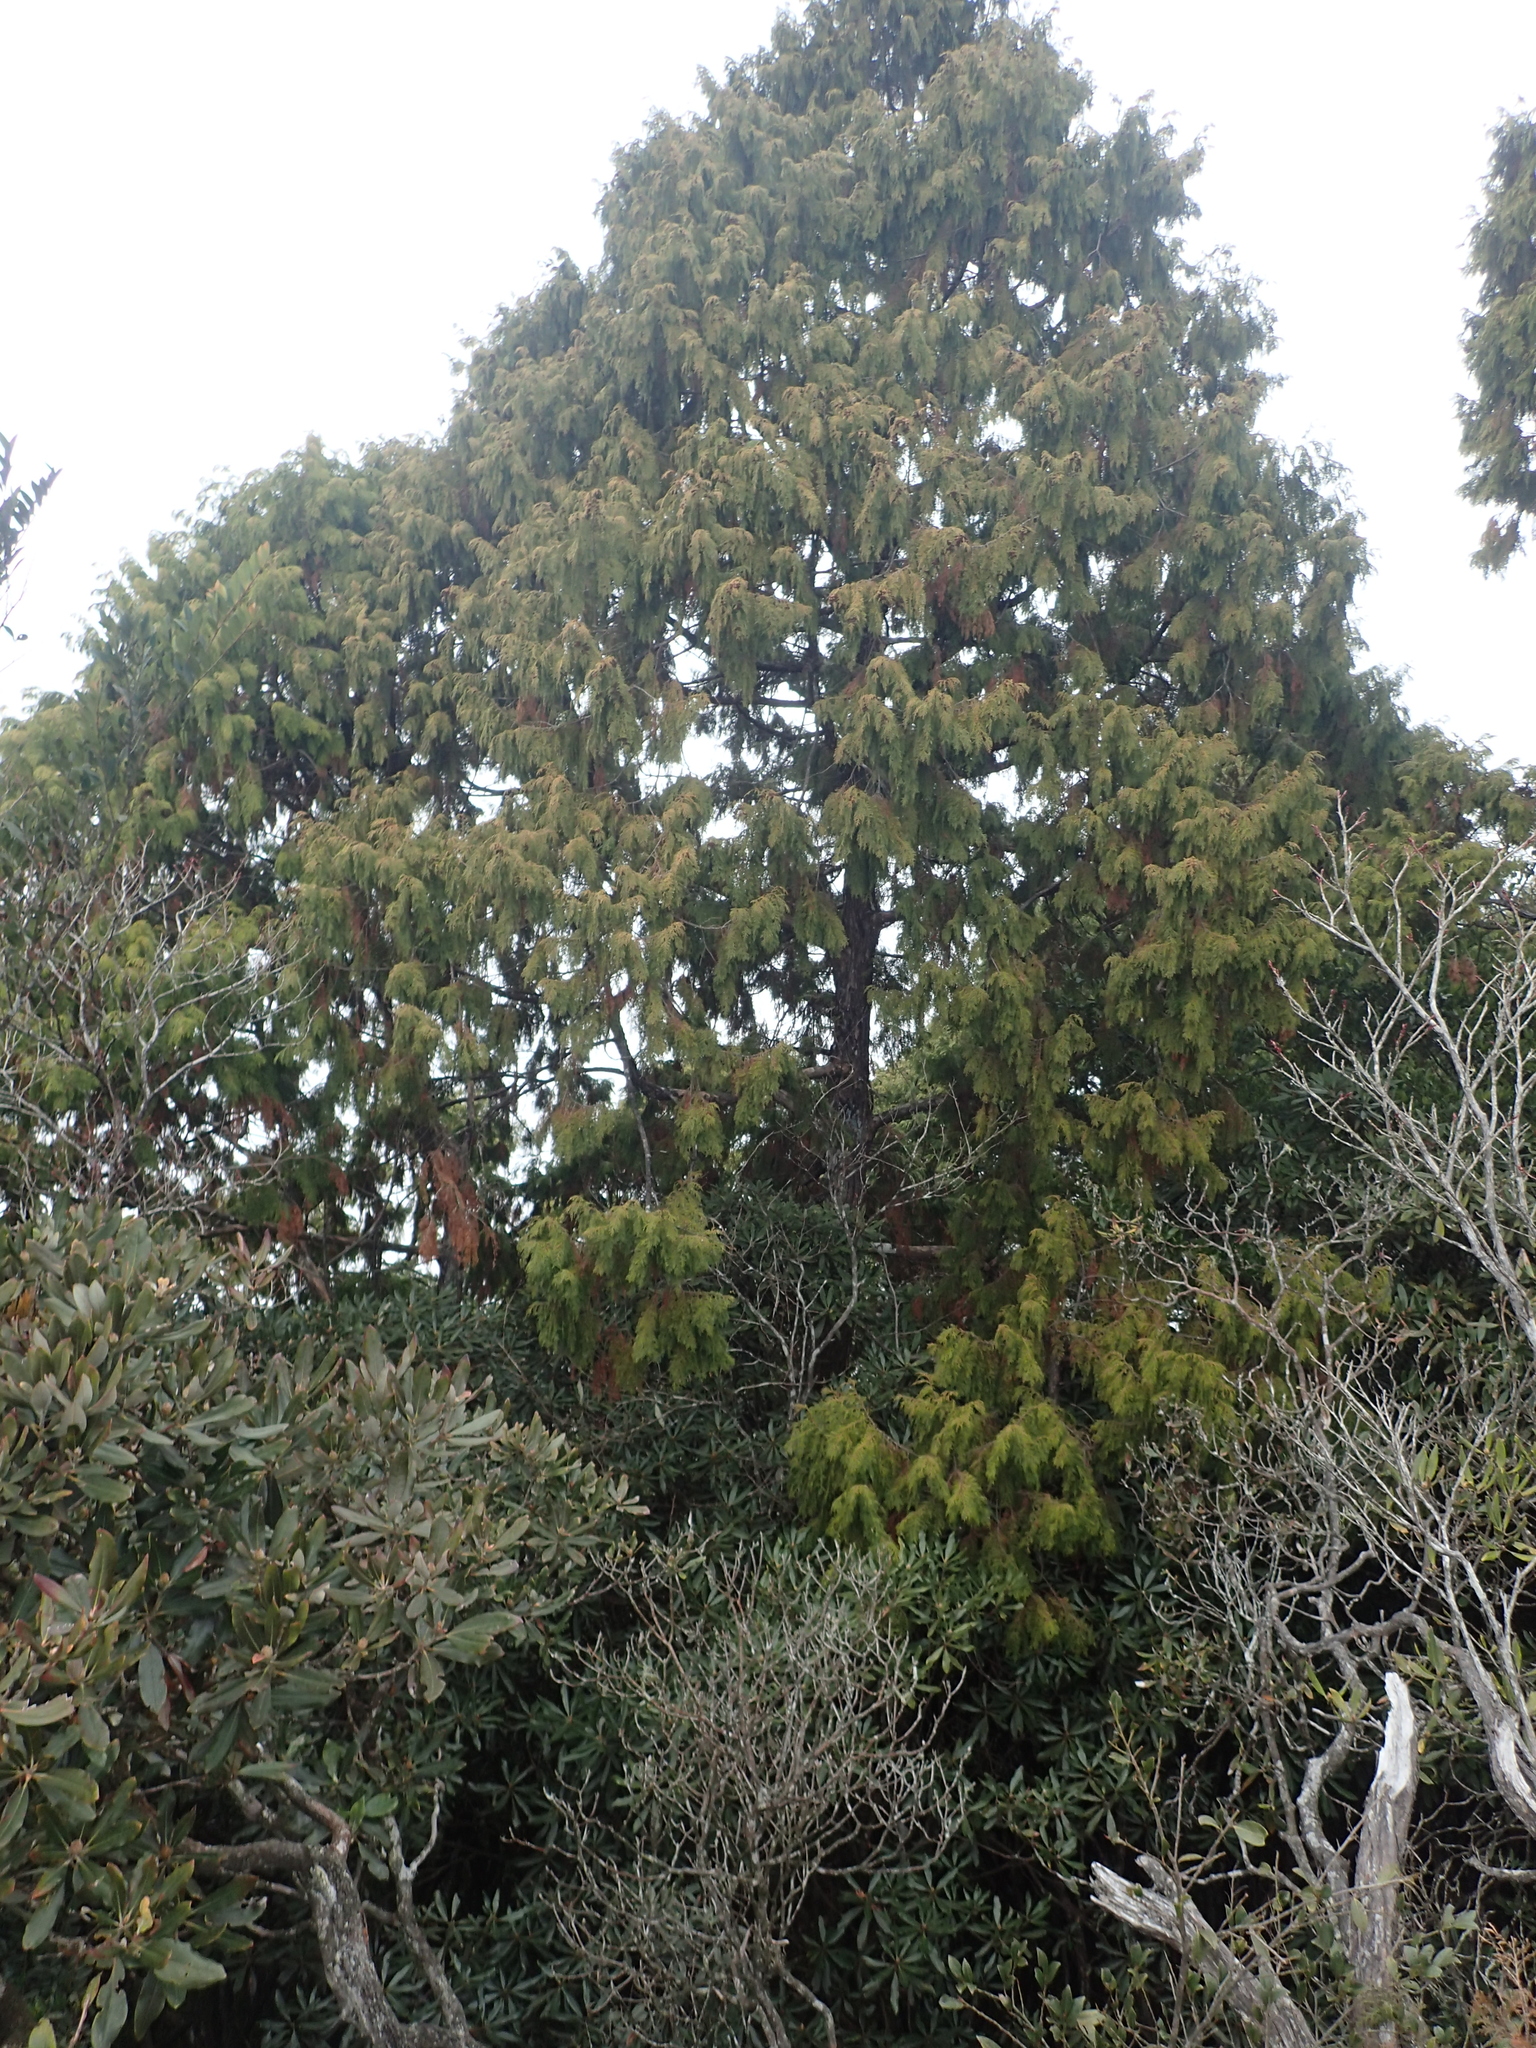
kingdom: Plantae
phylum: Tracheophyta
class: Pinopsida
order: Pinales
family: Cupressaceae
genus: Chamaecyparis
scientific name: Chamaecyparis obtusa
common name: Hinoki false cypress
